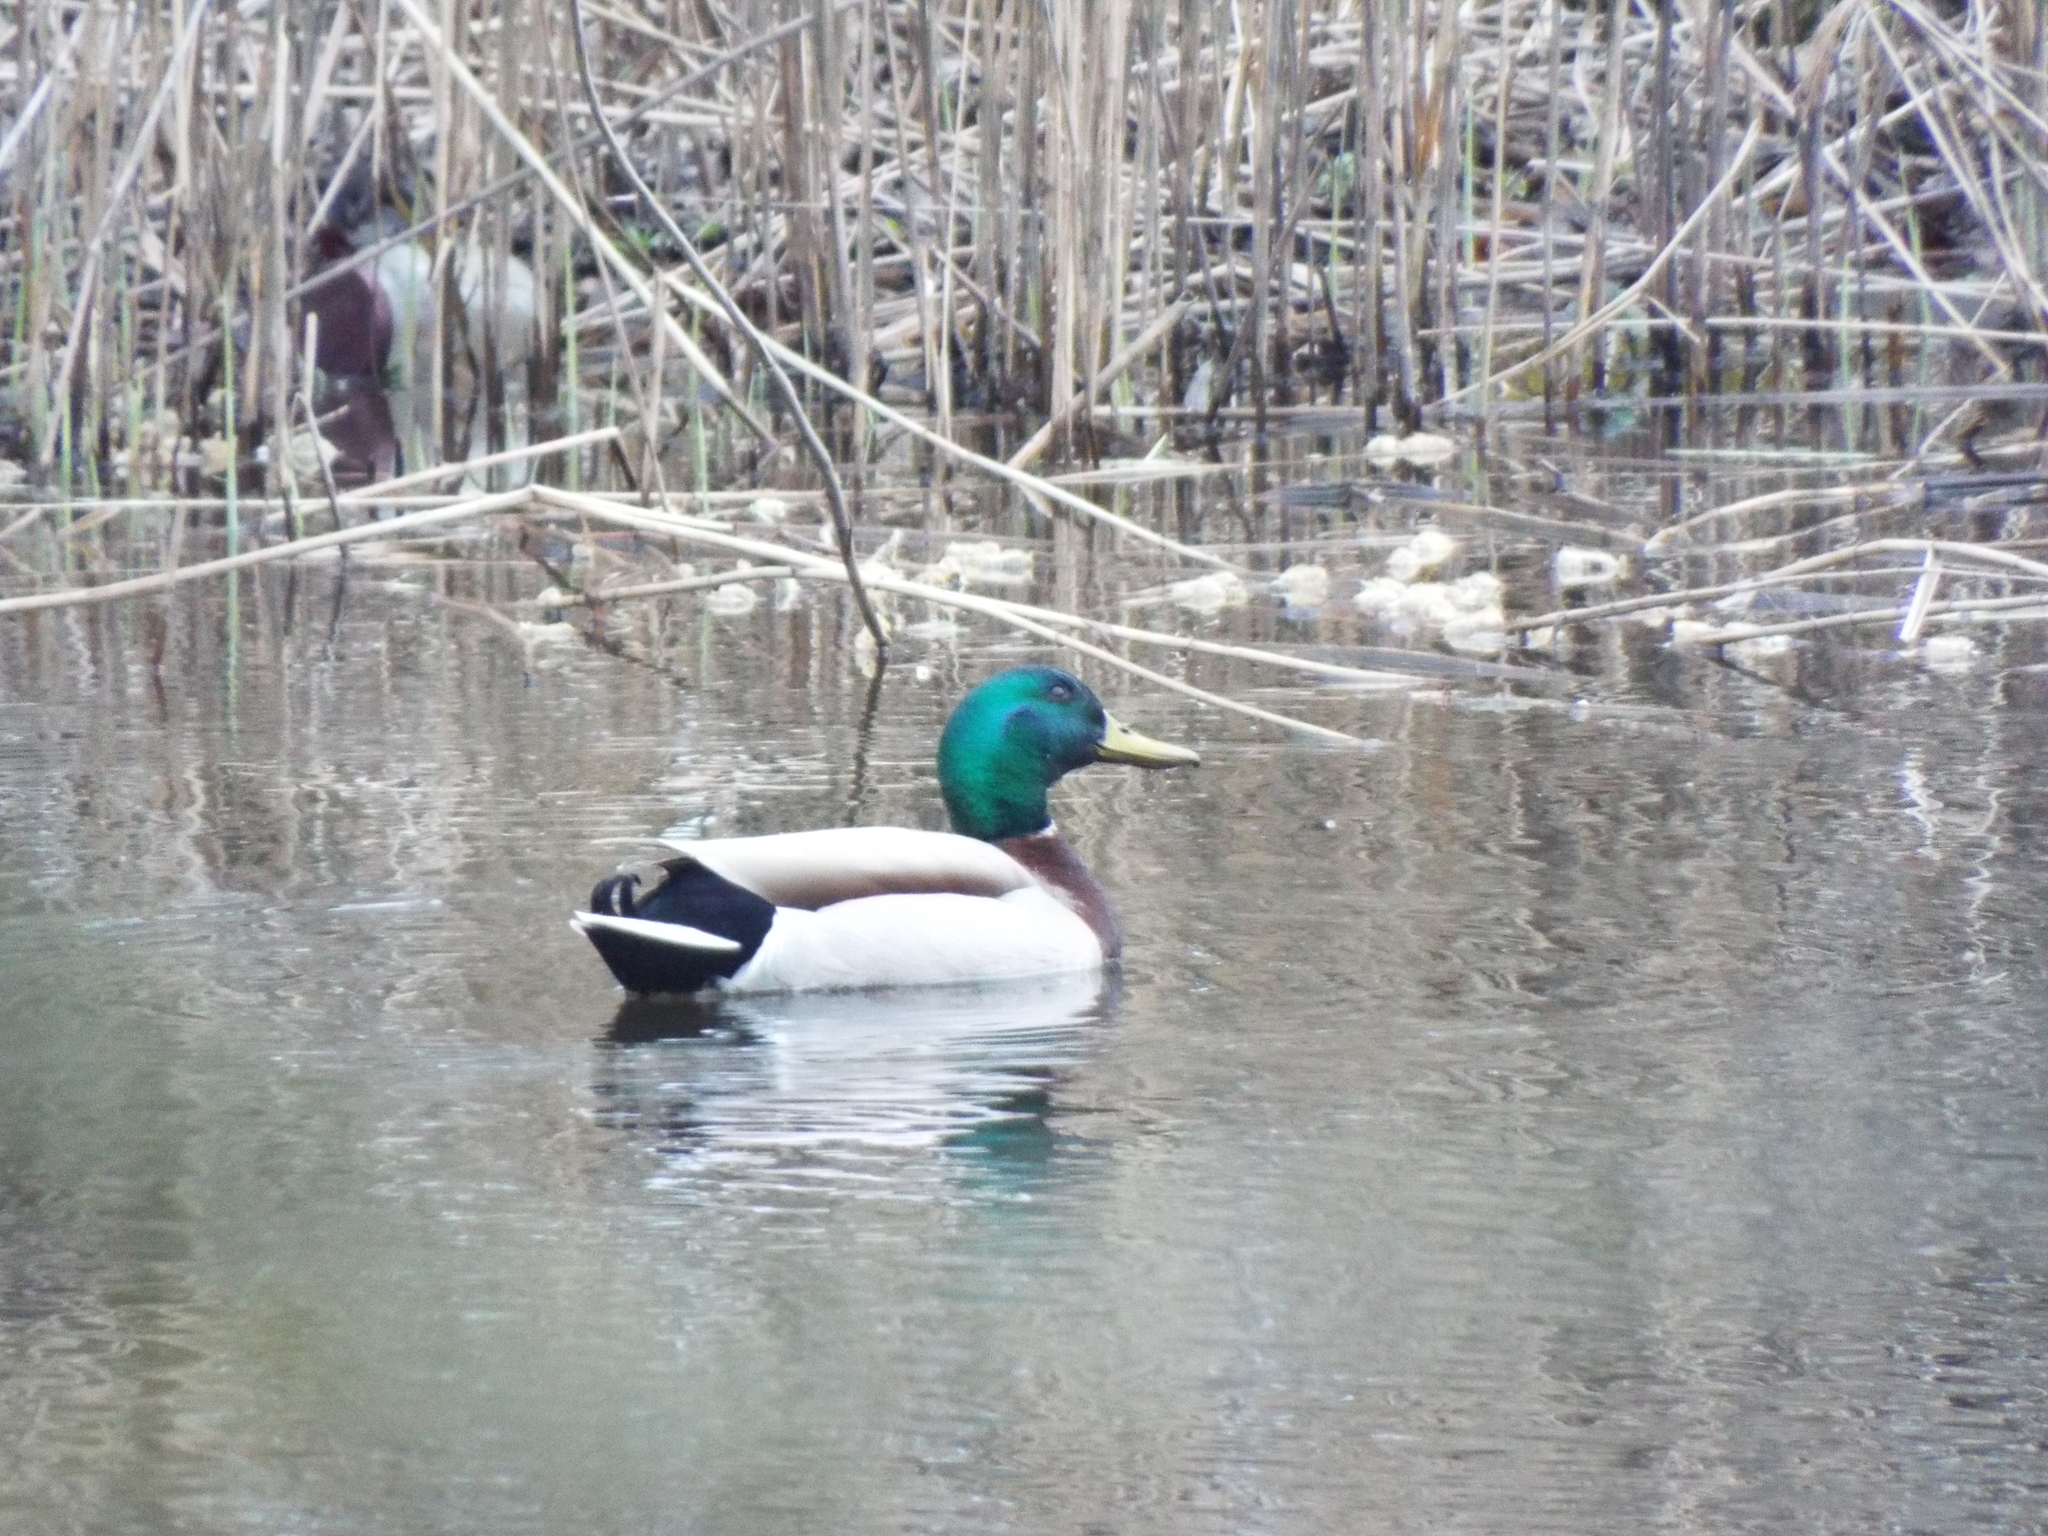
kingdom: Animalia
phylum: Chordata
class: Aves
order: Anseriformes
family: Anatidae
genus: Anas
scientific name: Anas platyrhynchos
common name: Mallard
